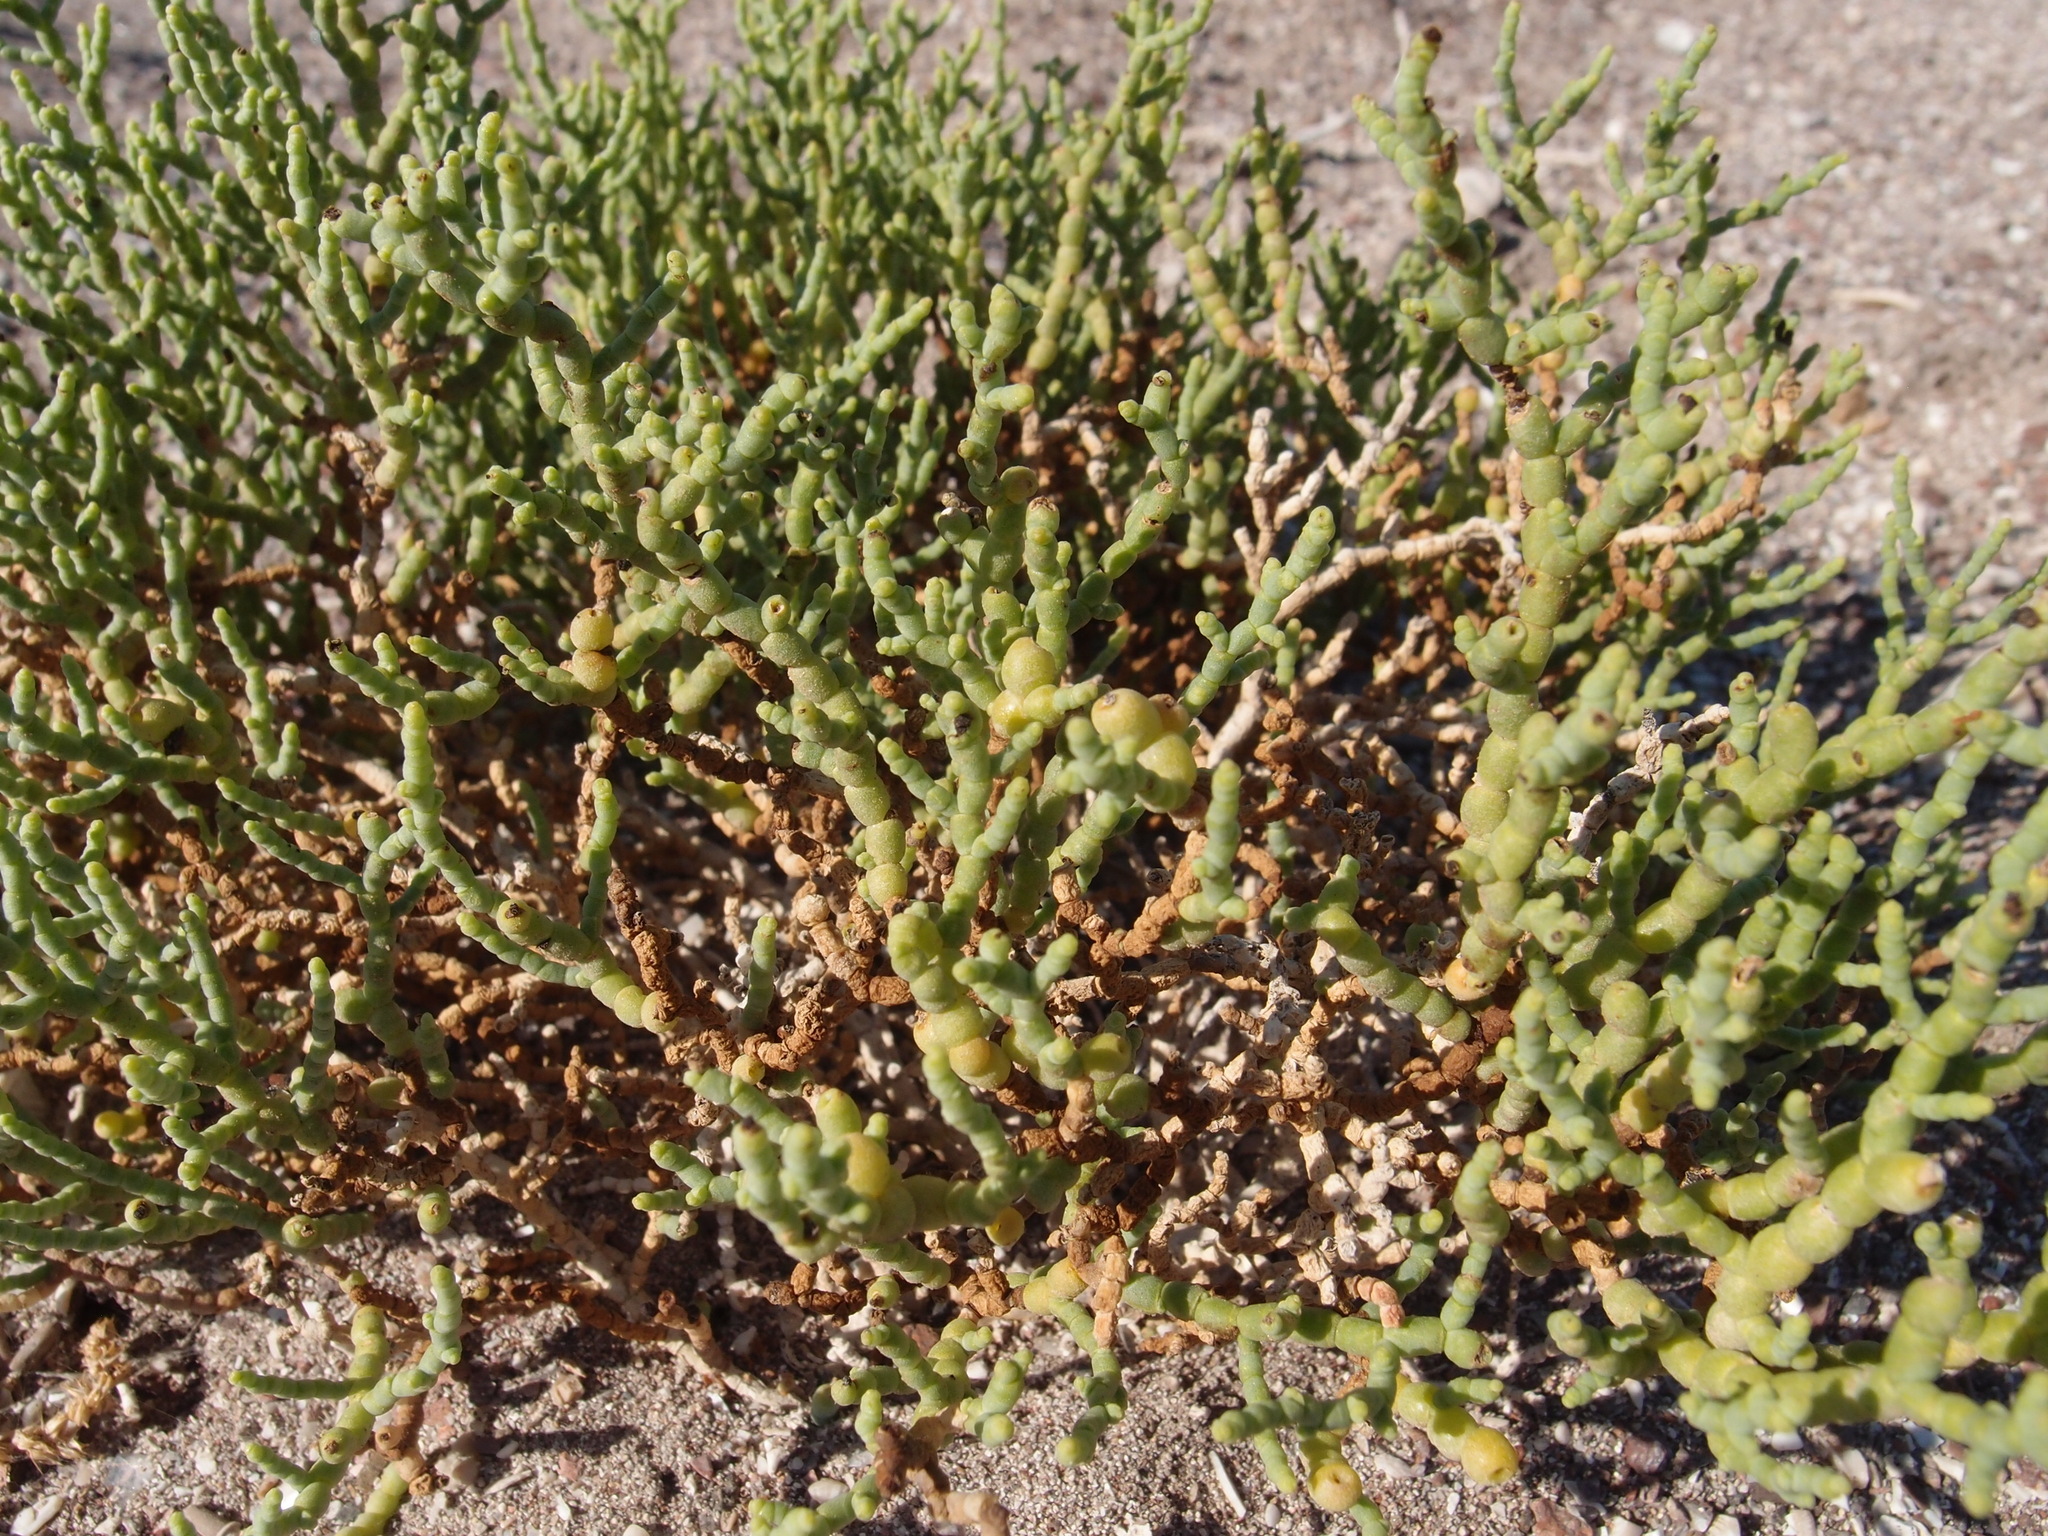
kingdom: Plantae
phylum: Tracheophyta
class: Magnoliopsida
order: Caryophyllales
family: Amaranthaceae
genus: Allenrolfea
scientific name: Allenrolfea occidentalis
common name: Iodine-bush
